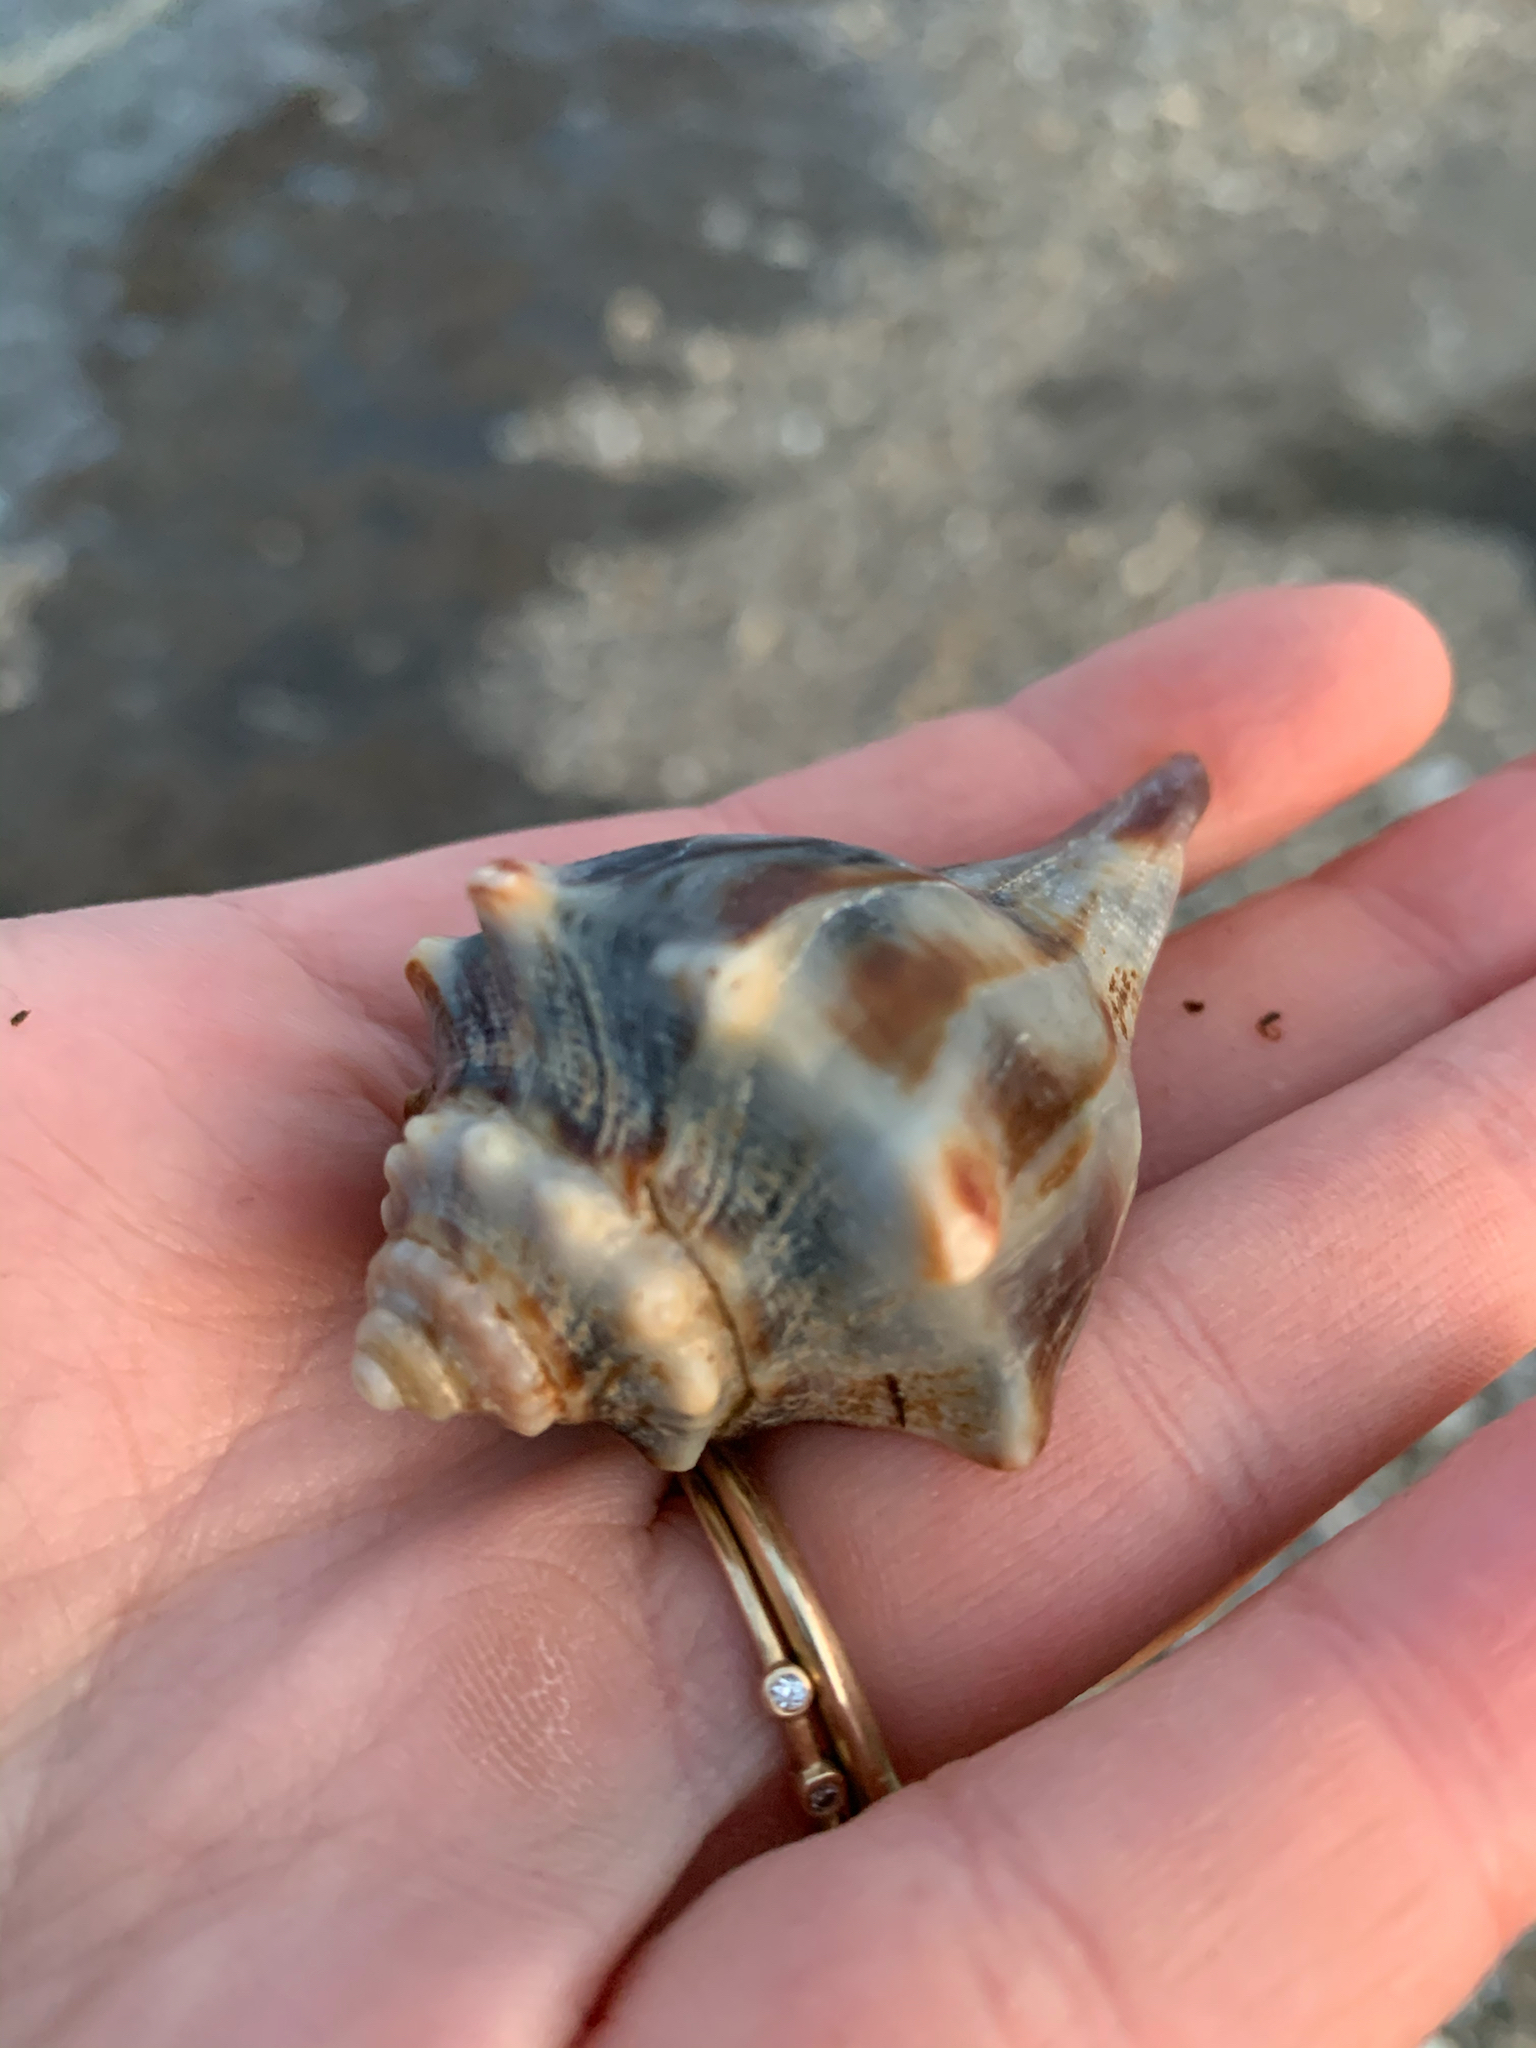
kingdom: Animalia
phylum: Mollusca
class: Gastropoda
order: Neogastropoda
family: Busyconidae
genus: Busycon
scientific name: Busycon carica
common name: Knobbed whelk
